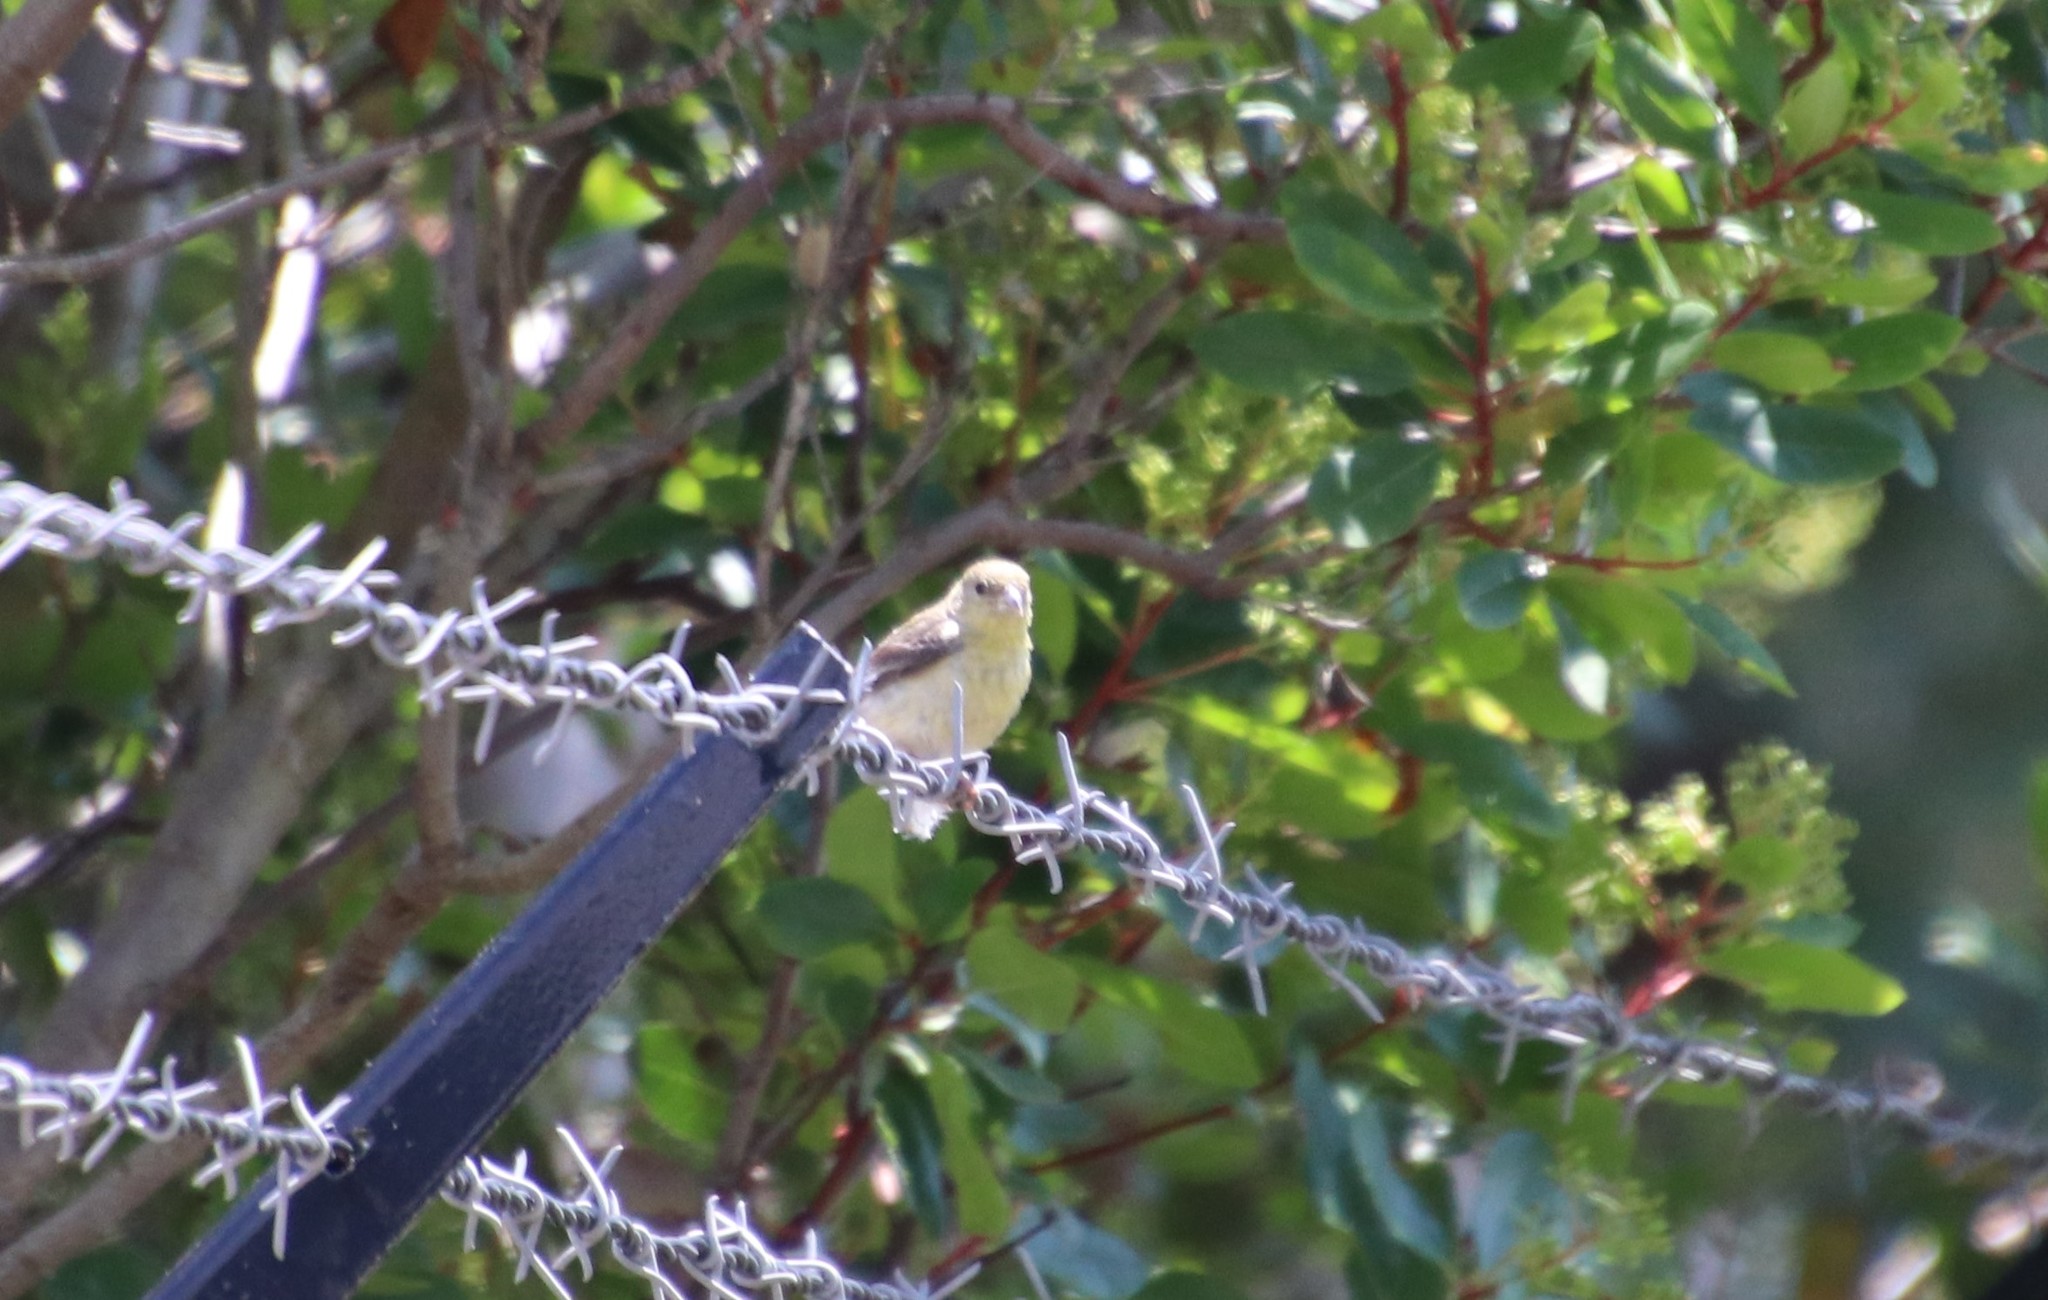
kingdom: Animalia
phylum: Chordata
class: Aves
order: Passeriformes
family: Fringillidae
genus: Spinus
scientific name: Spinus psaltria
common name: Lesser goldfinch
